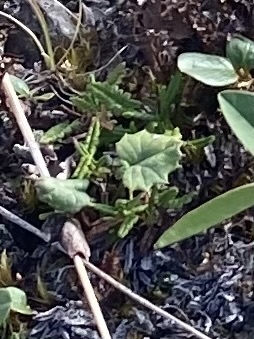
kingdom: Plantae
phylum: Tracheophyta
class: Magnoliopsida
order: Asterales
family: Asteraceae
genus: Endocellion
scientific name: Endocellion glaciale
